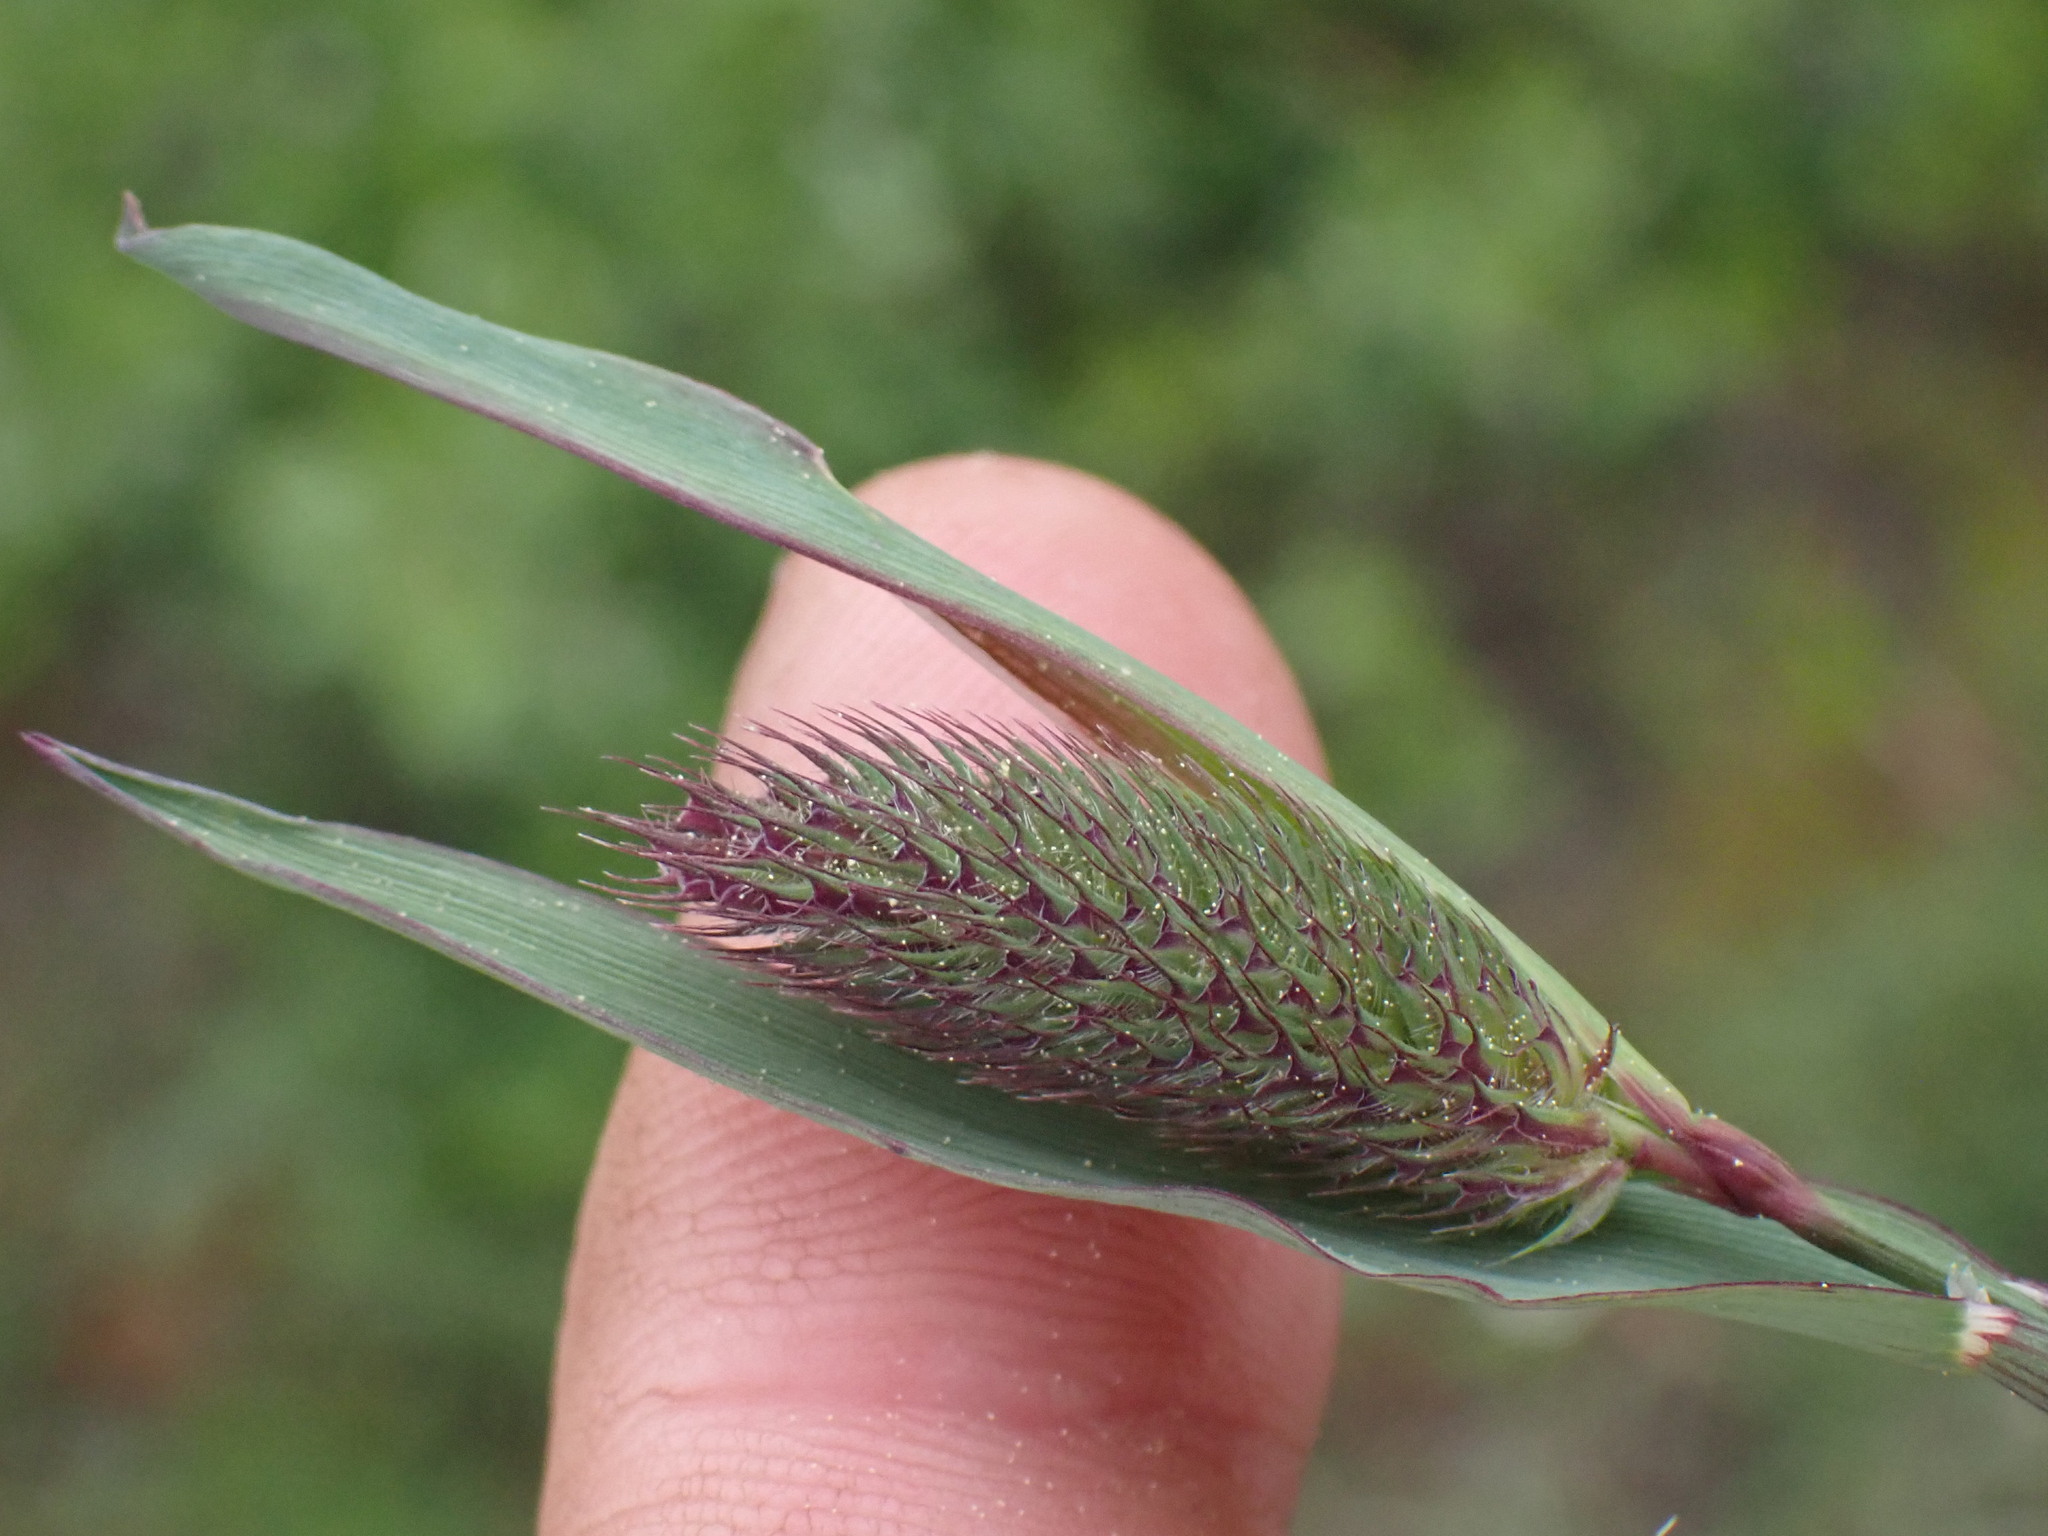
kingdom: Plantae
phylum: Tracheophyta
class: Liliopsida
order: Poales
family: Poaceae
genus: Phleum
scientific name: Phleum alpinum
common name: Alpine cat's-tail
